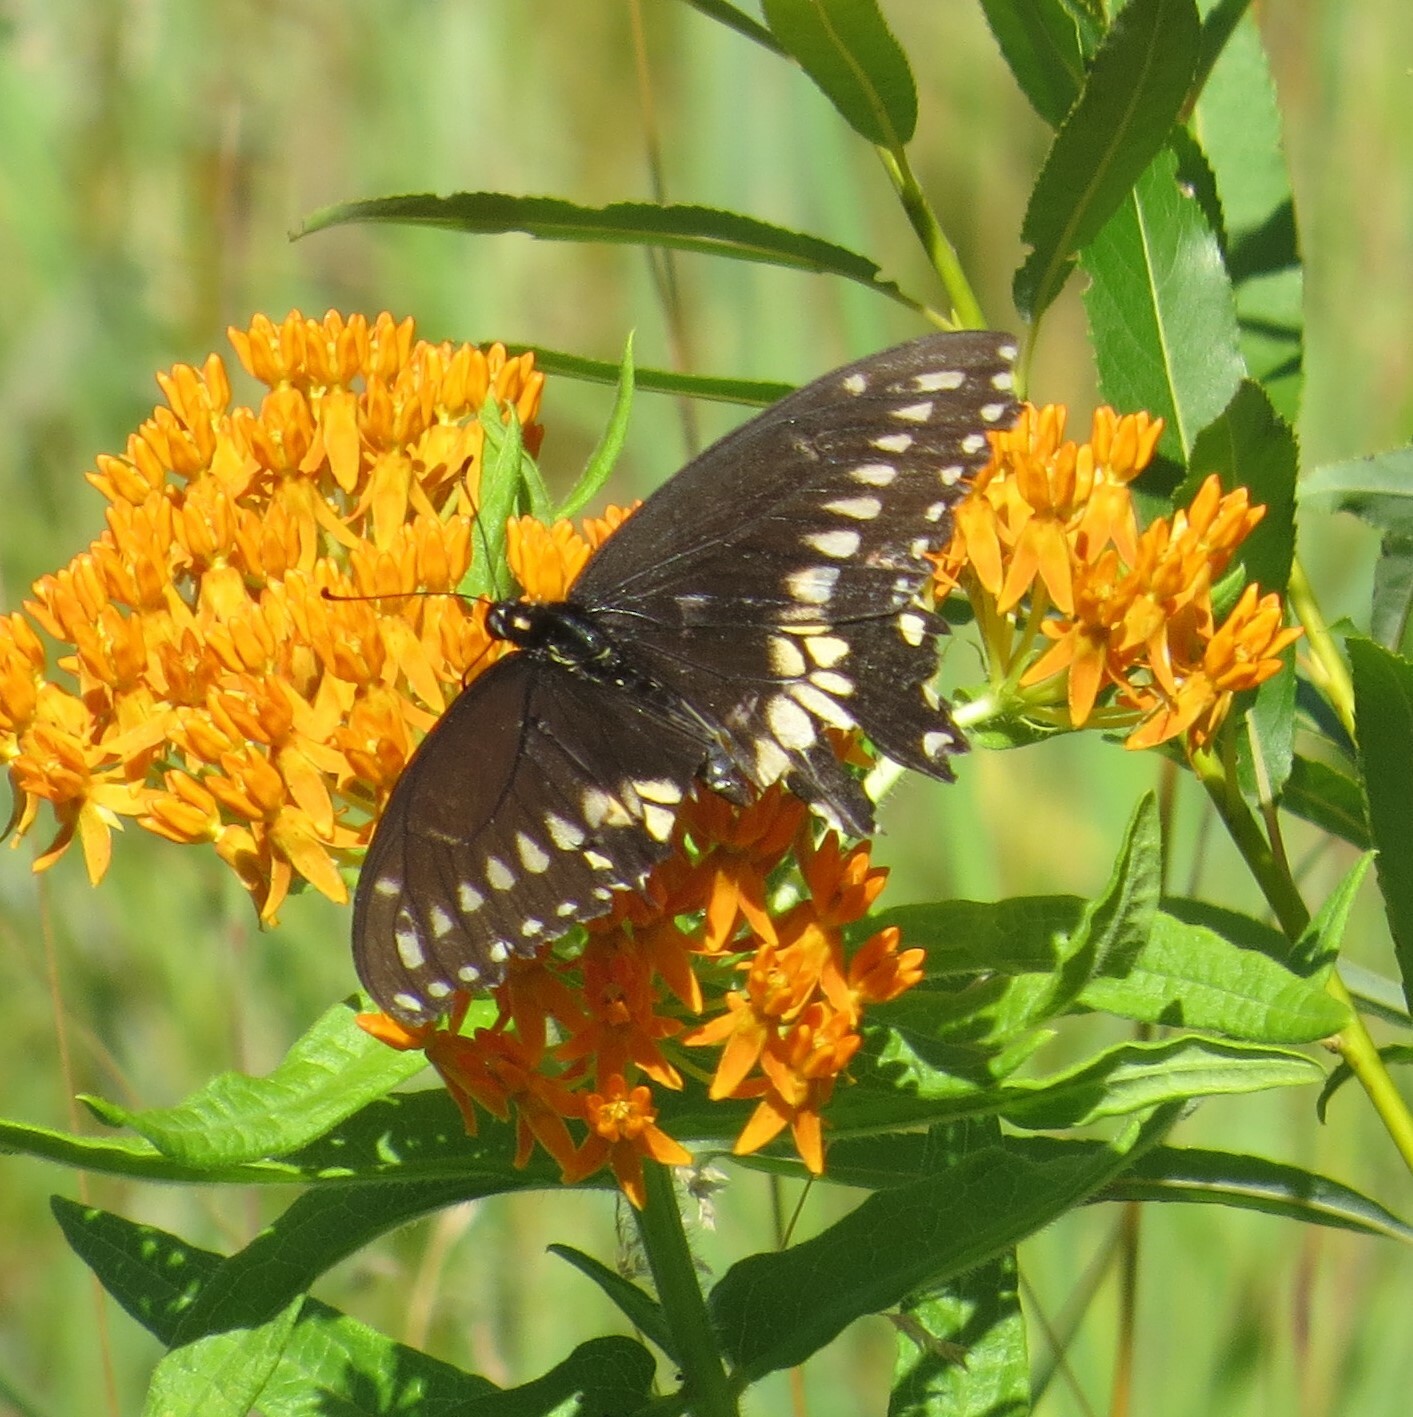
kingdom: Animalia
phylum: Arthropoda
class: Insecta
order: Lepidoptera
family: Papilionidae
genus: Papilio
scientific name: Papilio polyxenes
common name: Black swallowtail
